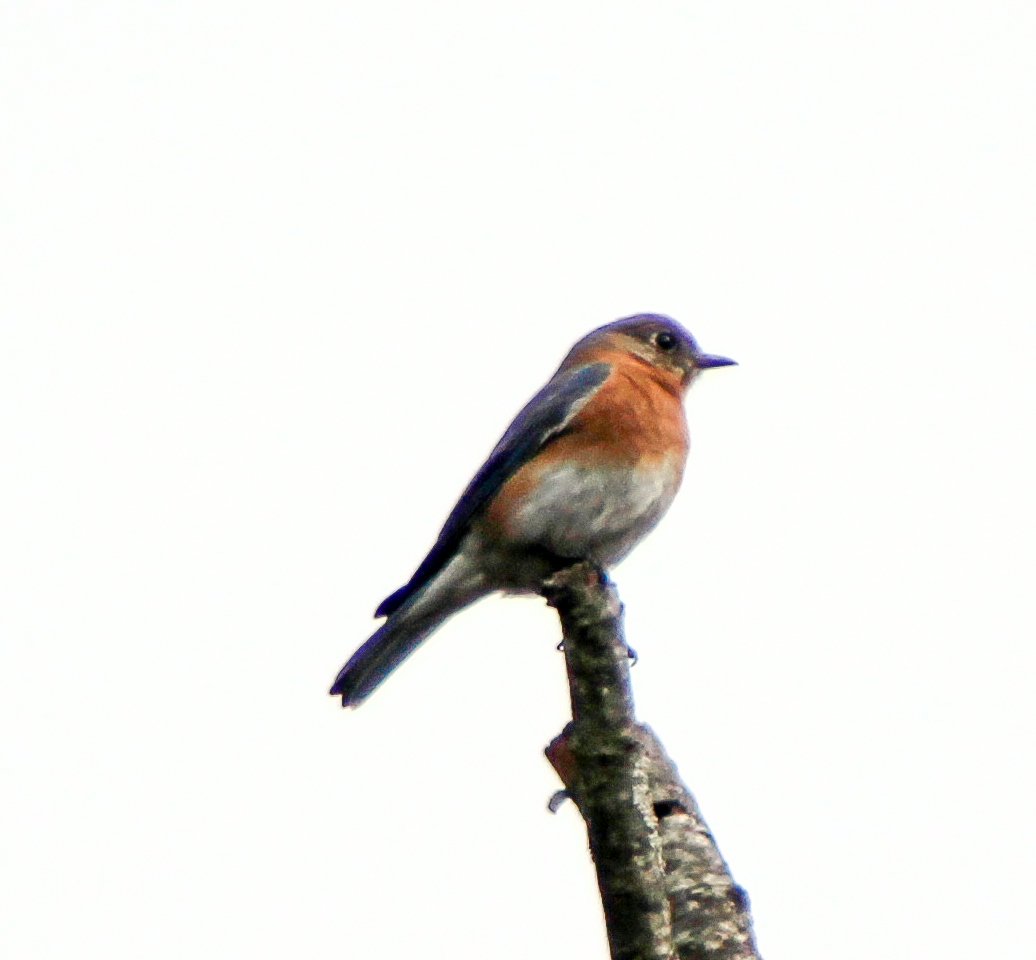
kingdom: Animalia
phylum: Chordata
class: Aves
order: Passeriformes
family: Turdidae
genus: Sialia
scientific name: Sialia sialis
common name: Eastern bluebird
